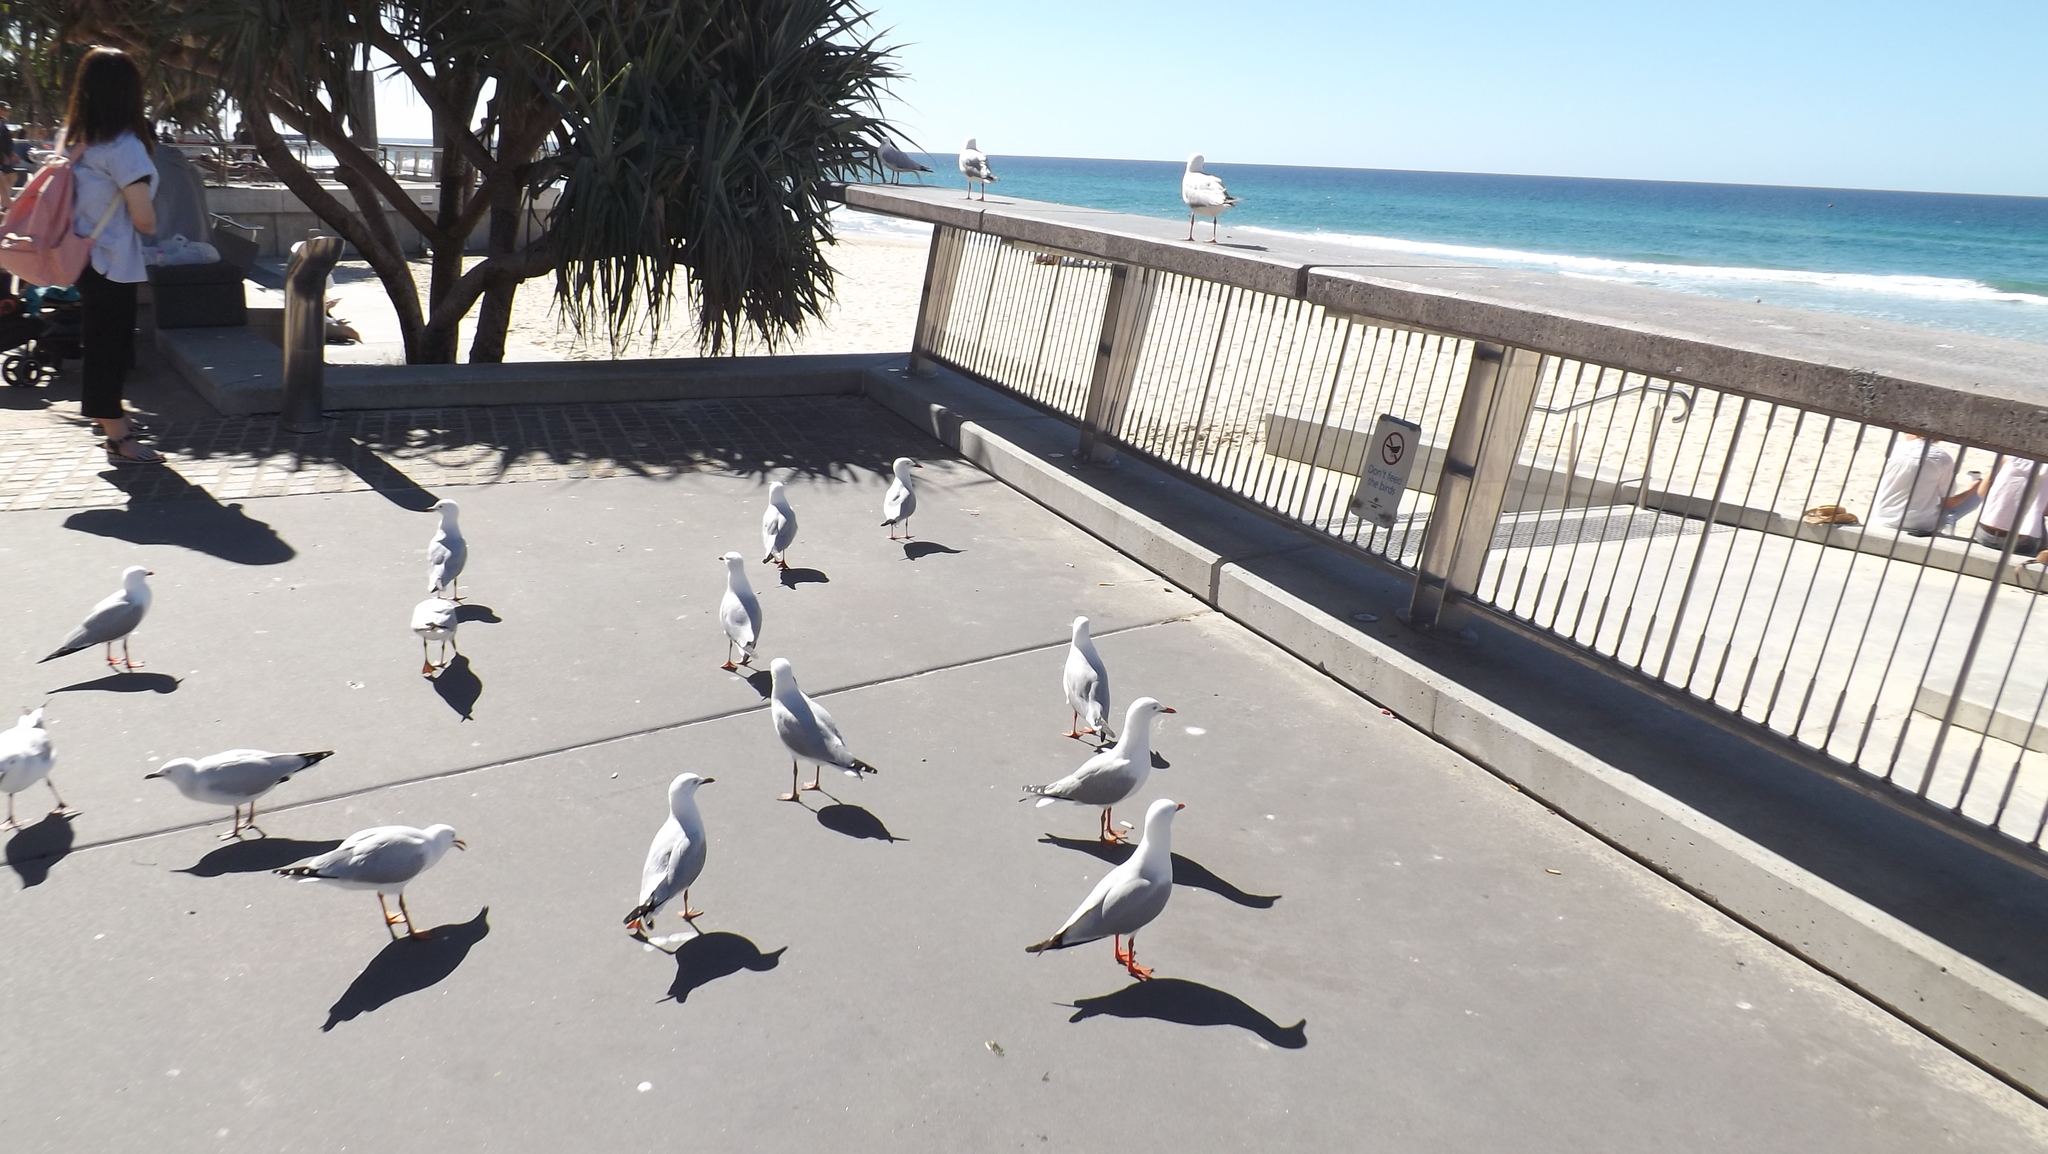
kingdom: Animalia
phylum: Chordata
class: Aves
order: Charadriiformes
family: Laridae
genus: Chroicocephalus
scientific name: Chroicocephalus novaehollandiae
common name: Silver gull
